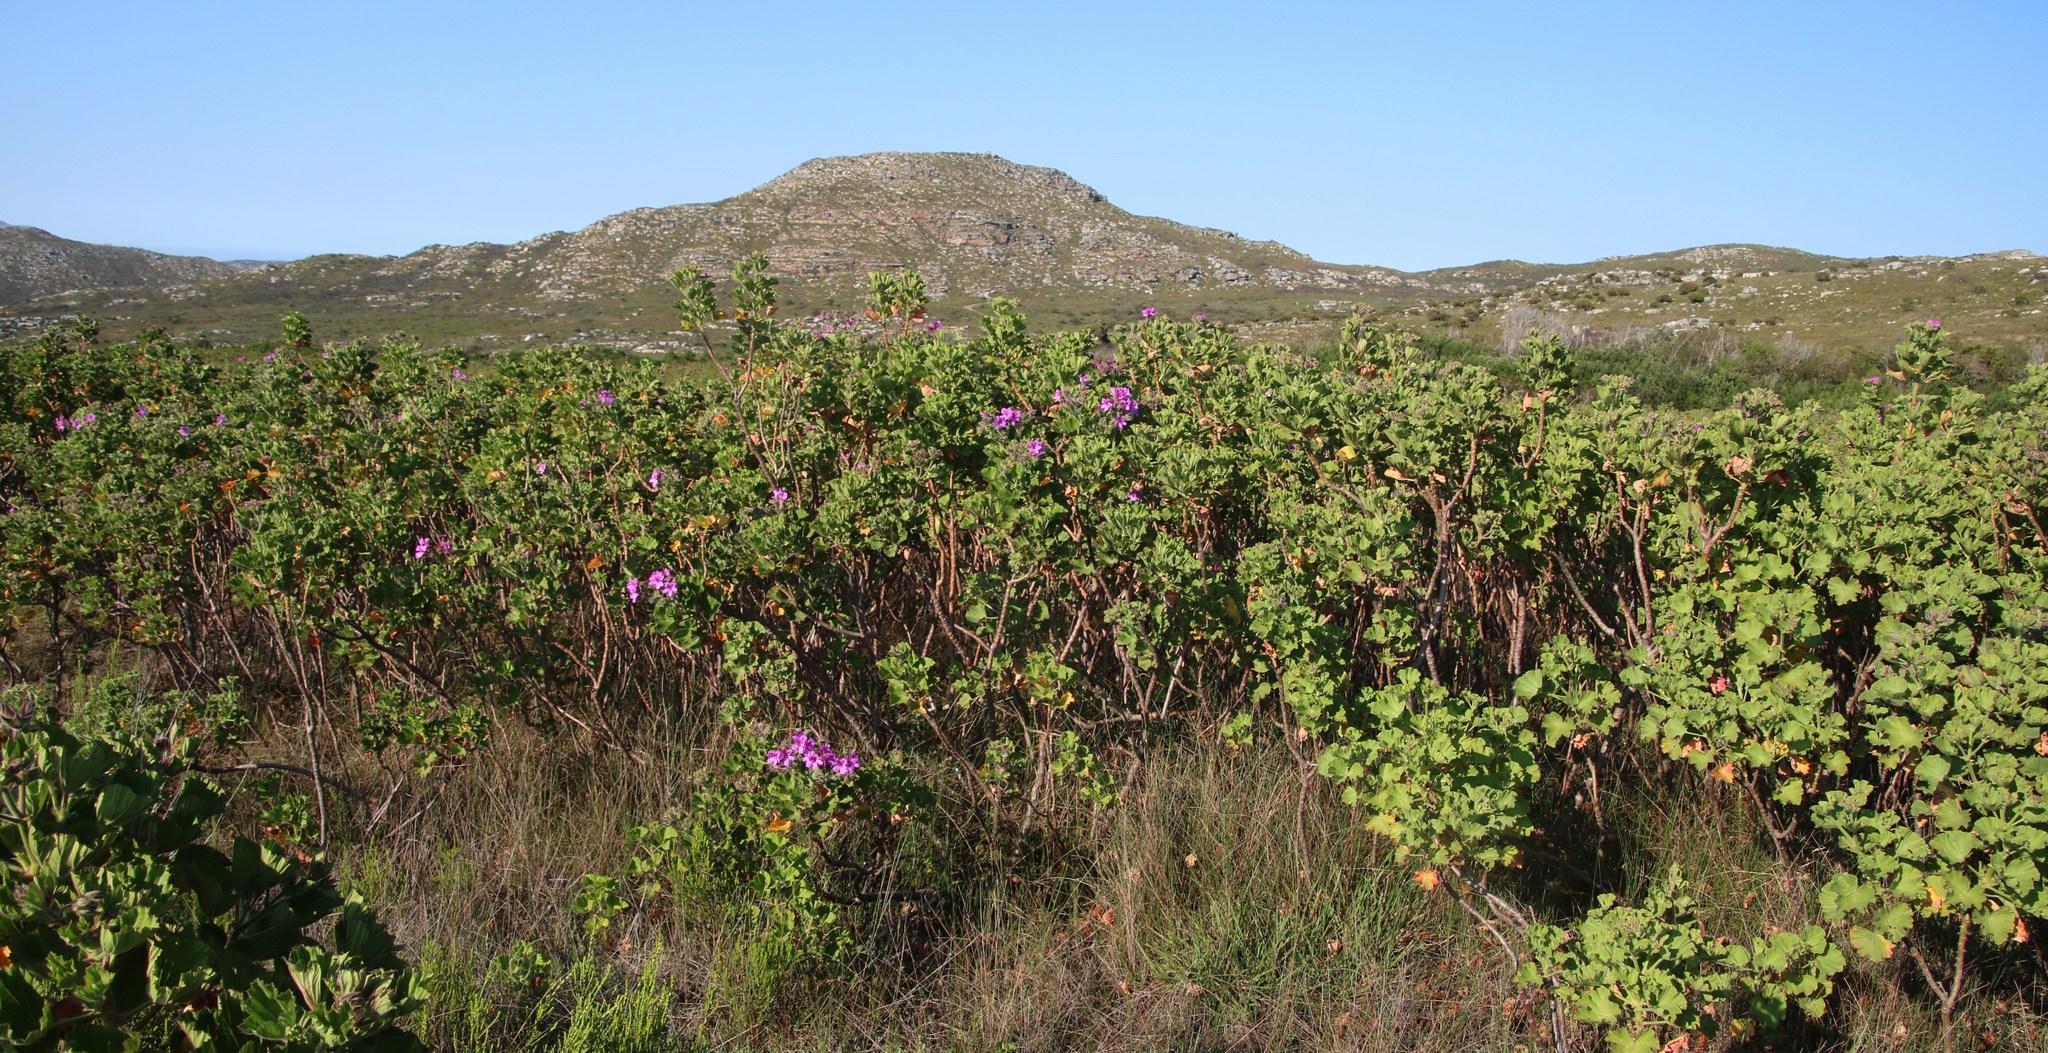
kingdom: Plantae
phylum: Tracheophyta
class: Magnoliopsida
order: Geraniales
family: Geraniaceae
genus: Pelargonium
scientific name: Pelargonium cucullatum
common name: Tree pelargonium
